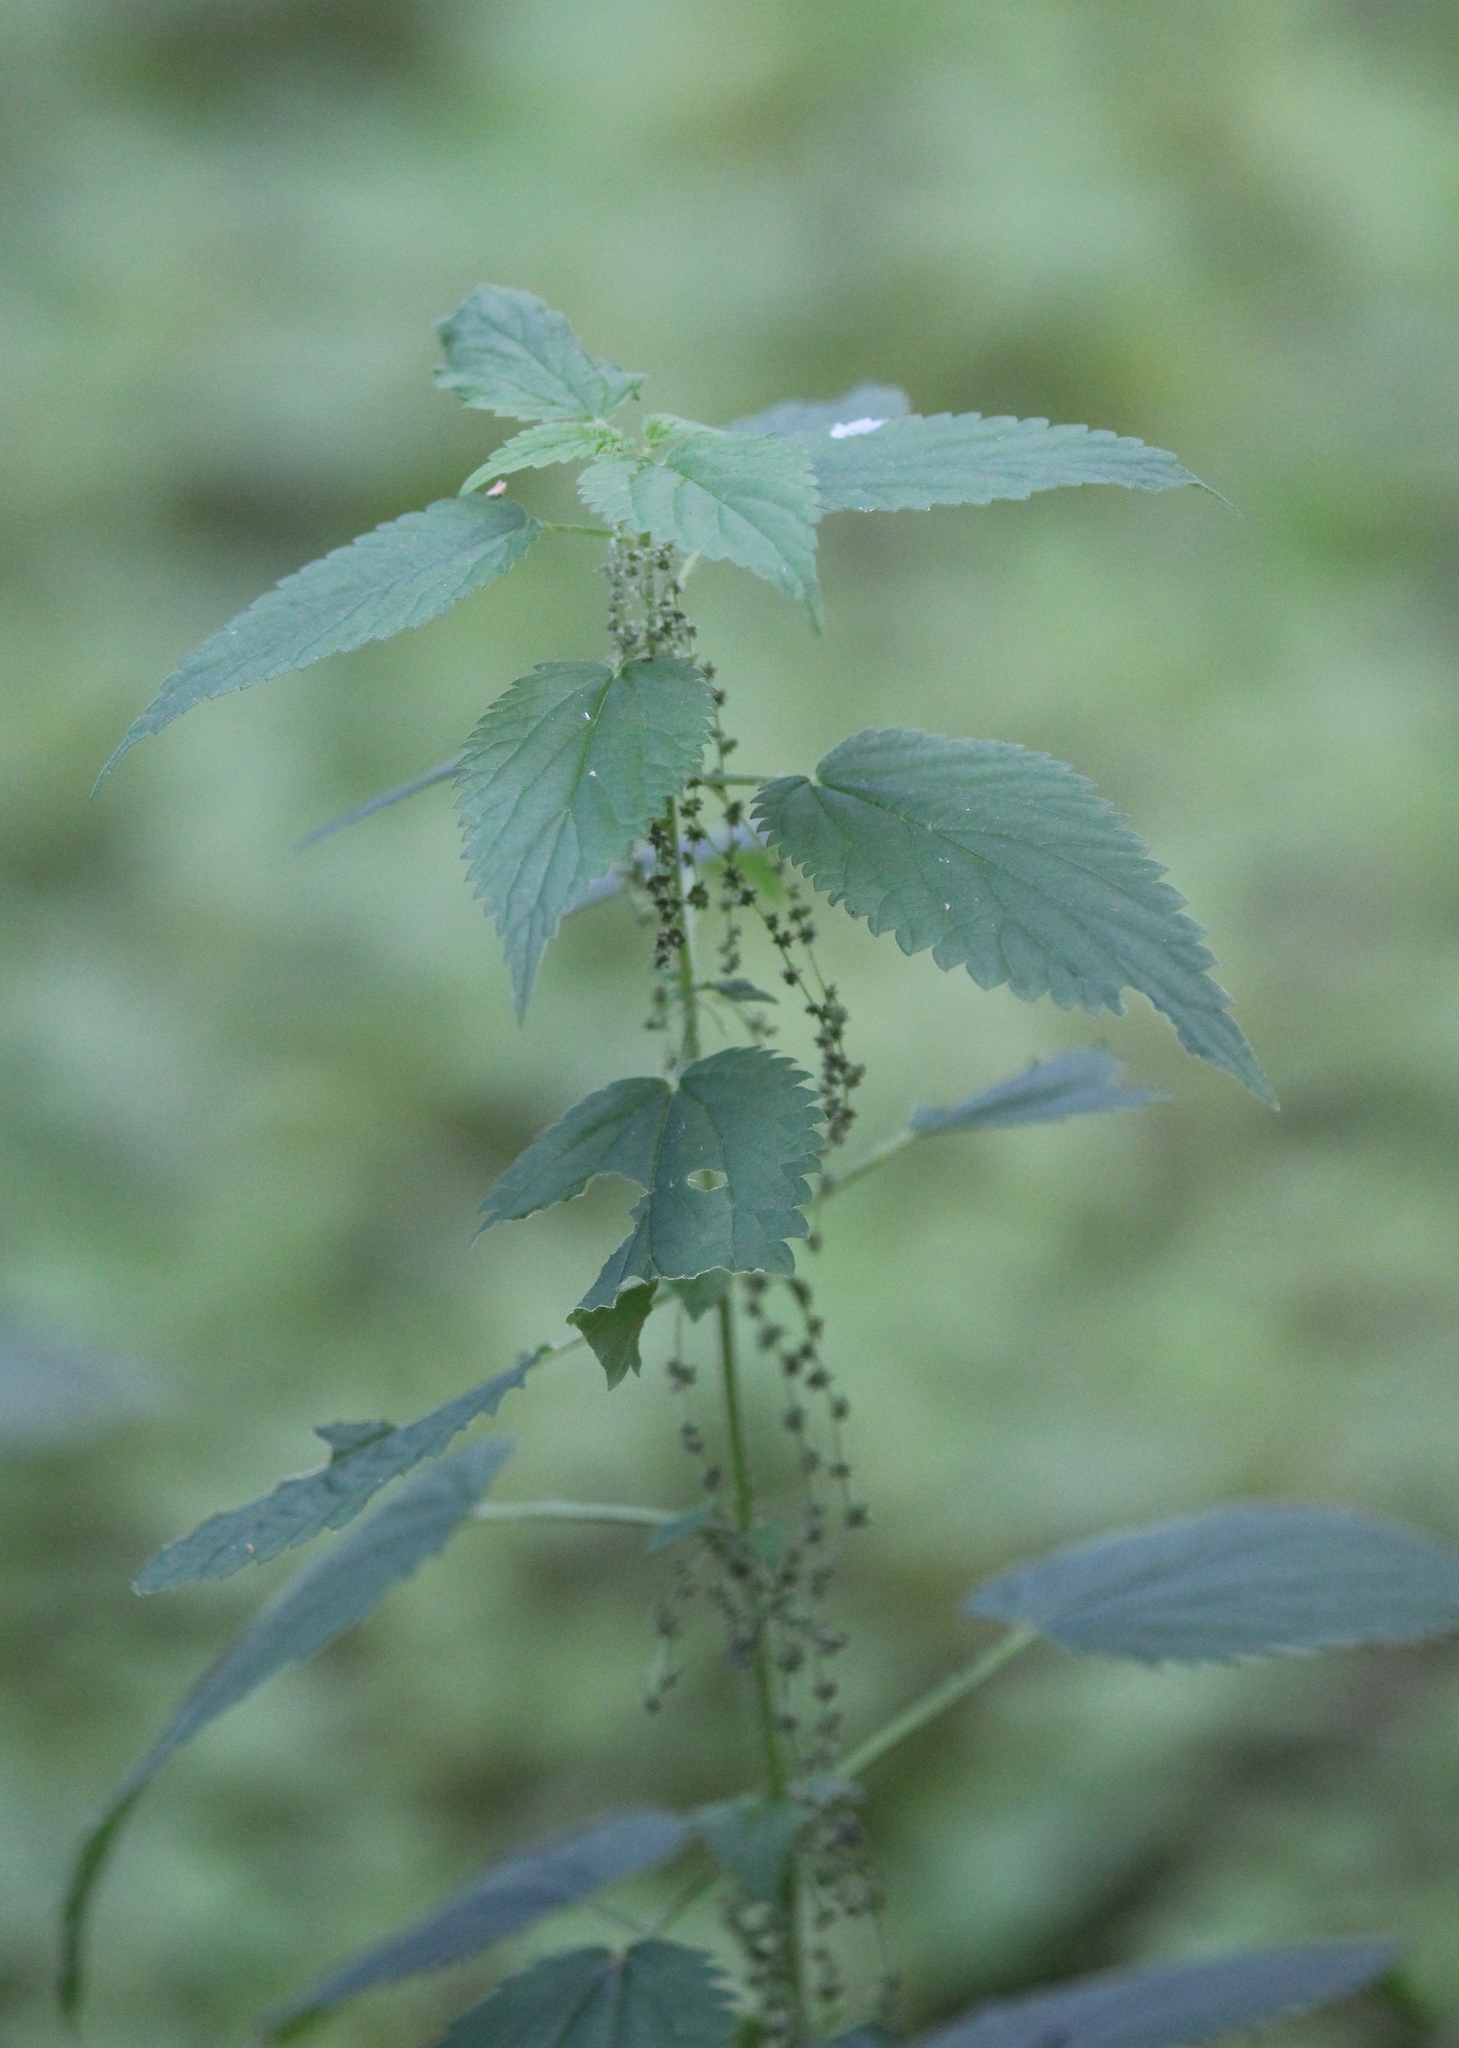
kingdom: Plantae
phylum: Tracheophyta
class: Magnoliopsida
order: Rosales
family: Urticaceae
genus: Urtica
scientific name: Urtica dioica
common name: Common nettle
